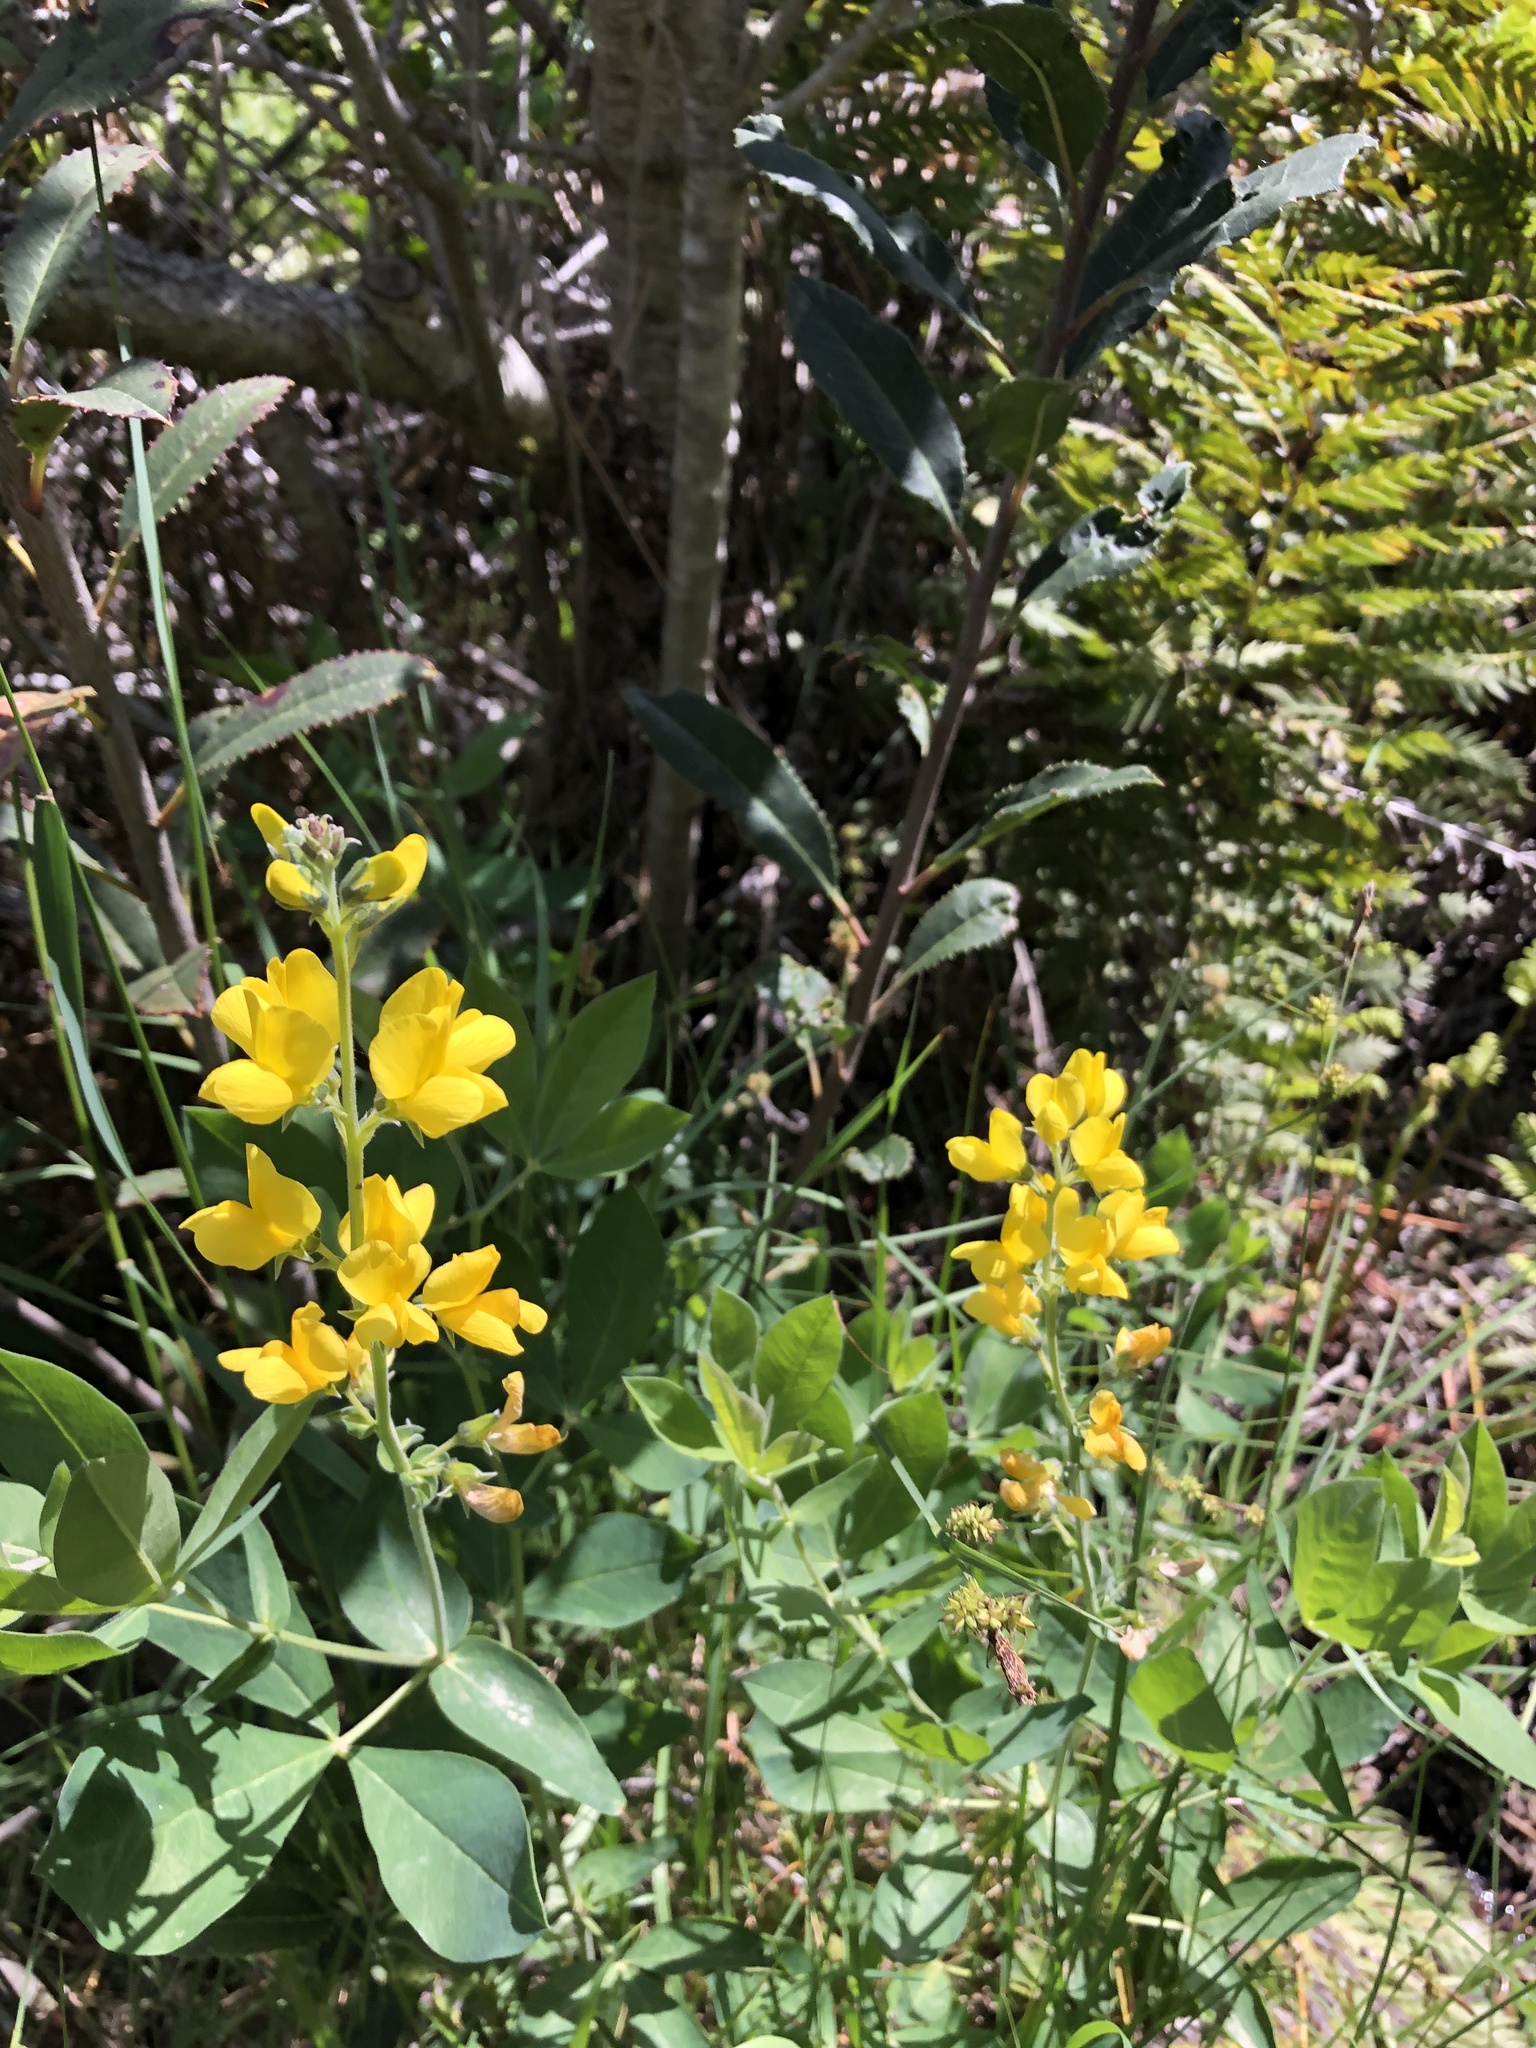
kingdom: Plantae
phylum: Tracheophyta
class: Magnoliopsida
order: Fabales
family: Fabaceae
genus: Thermopsis
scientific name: Thermopsis californica
